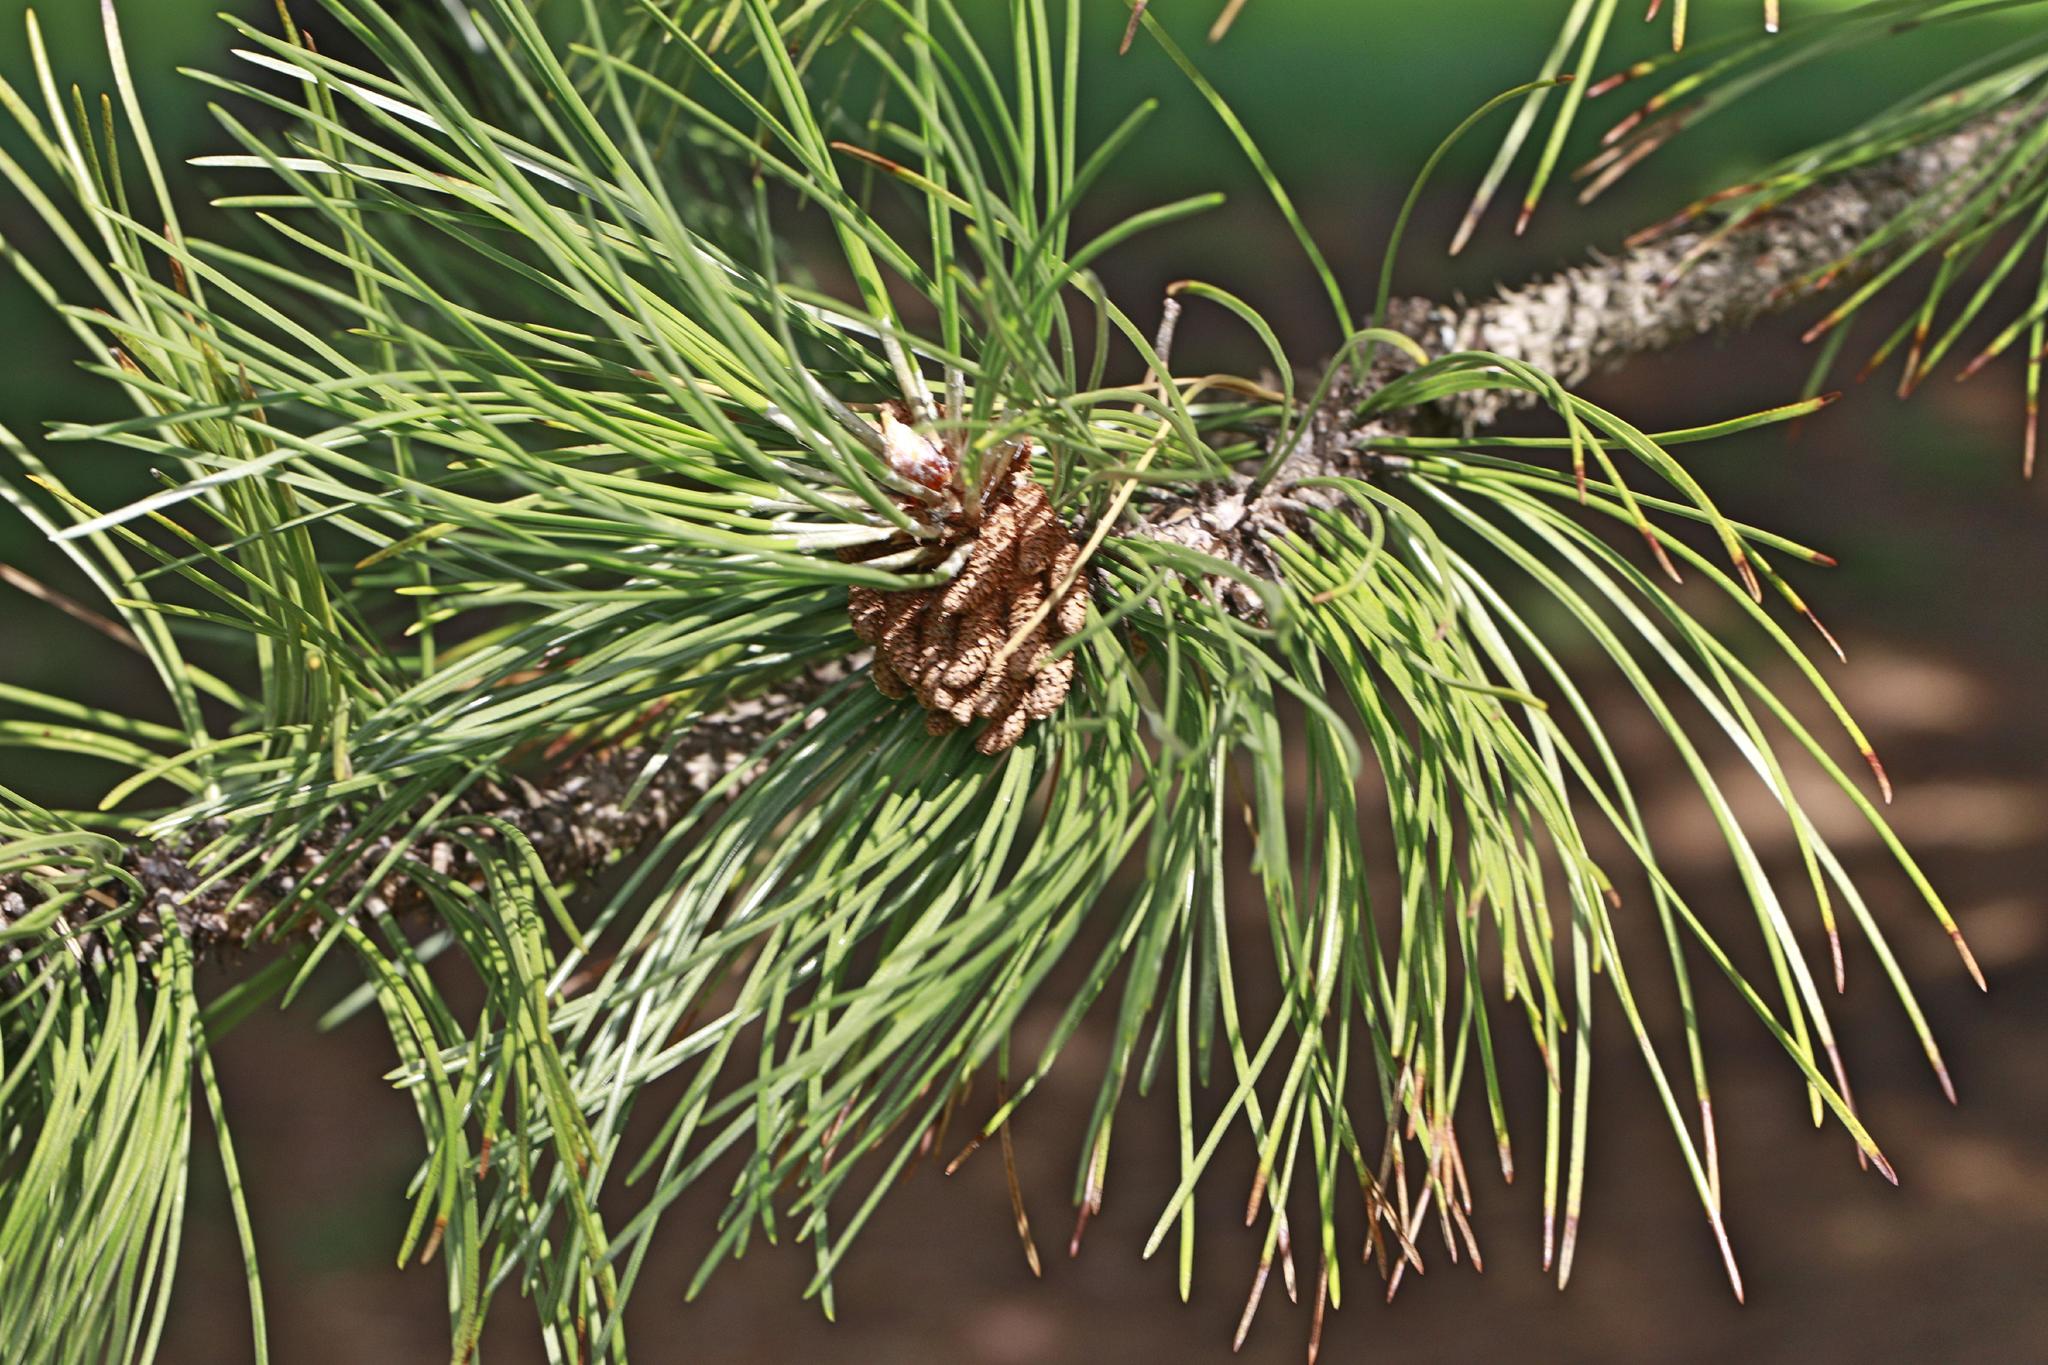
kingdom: Plantae
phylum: Tracheophyta
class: Pinopsida
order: Pinales
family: Pinaceae
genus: Pinus
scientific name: Pinus sylvestris
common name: Scots pine
